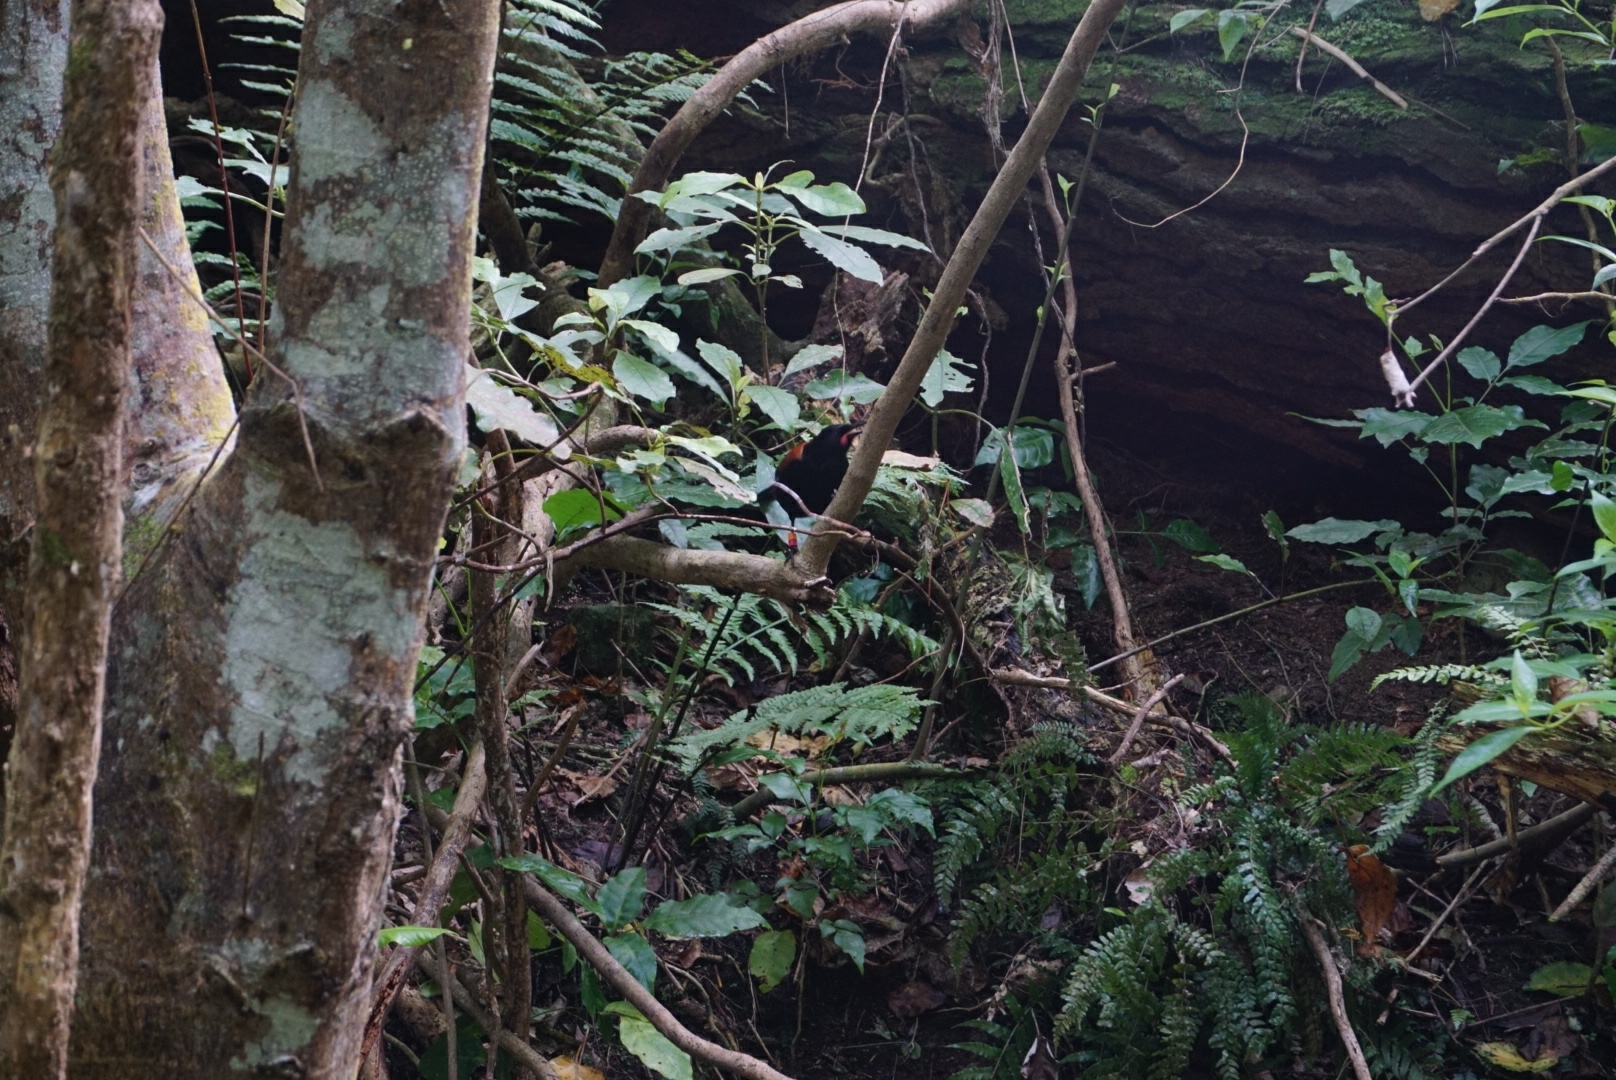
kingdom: Animalia
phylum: Chordata
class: Aves
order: Passeriformes
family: Callaeatidae
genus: Philesturnus
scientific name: Philesturnus carunculatus
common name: South island saddleback
